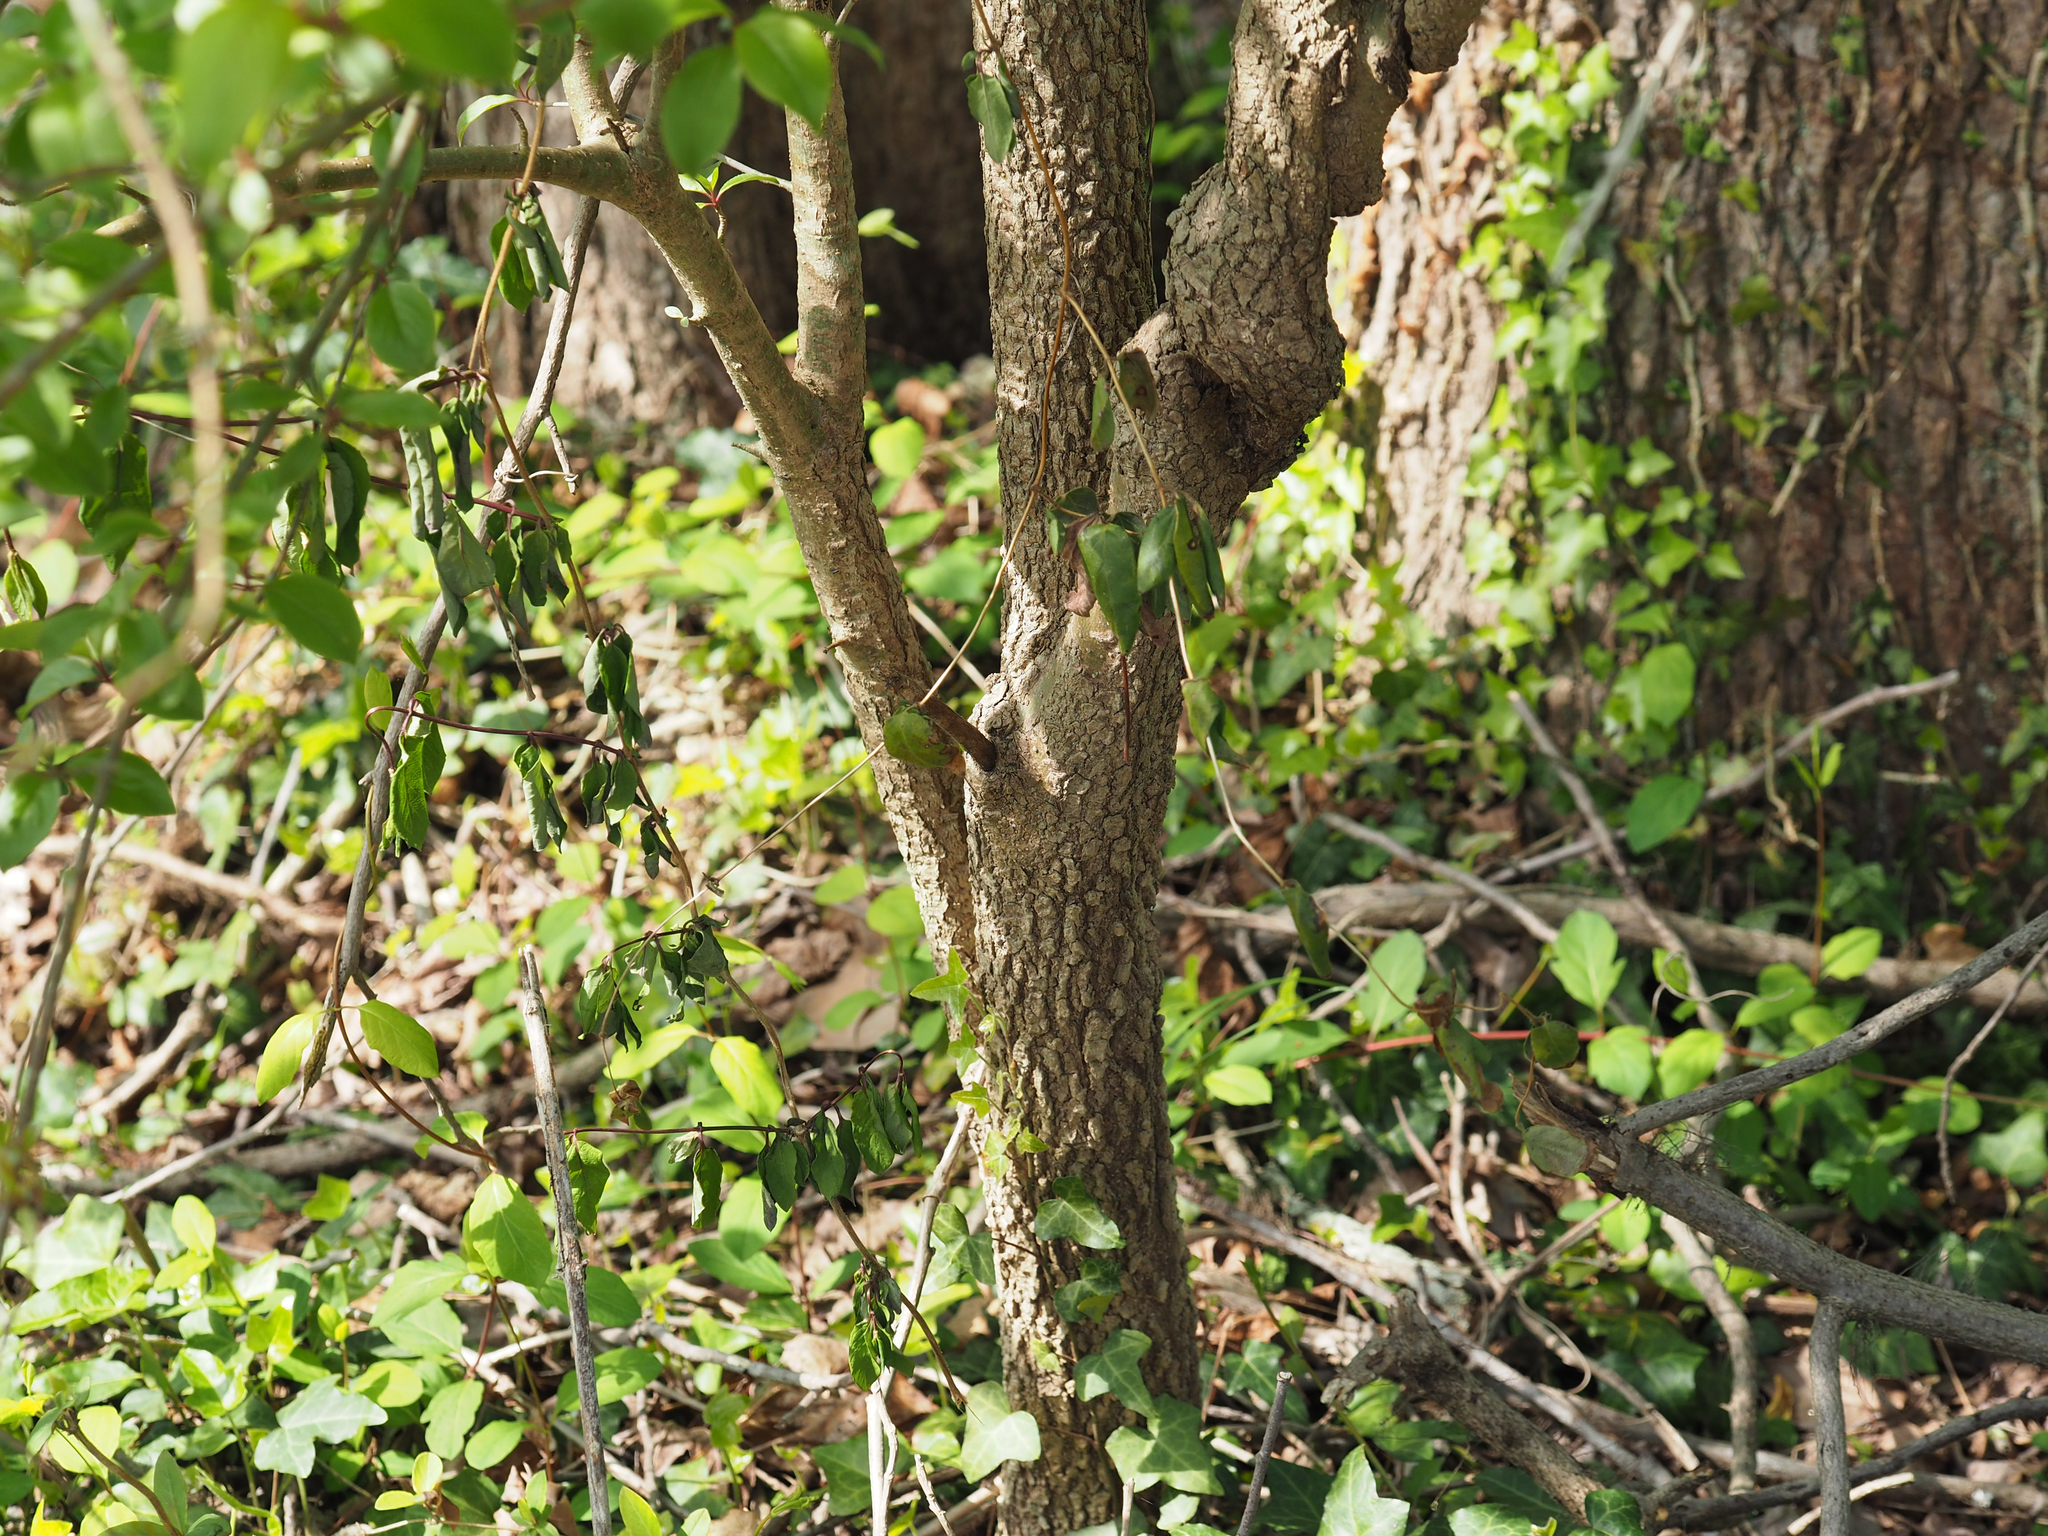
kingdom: Plantae
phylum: Tracheophyta
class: Magnoliopsida
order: Dipsacales
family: Viburnaceae
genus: Viburnum
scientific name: Viburnum prunifolium
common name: Black haw
